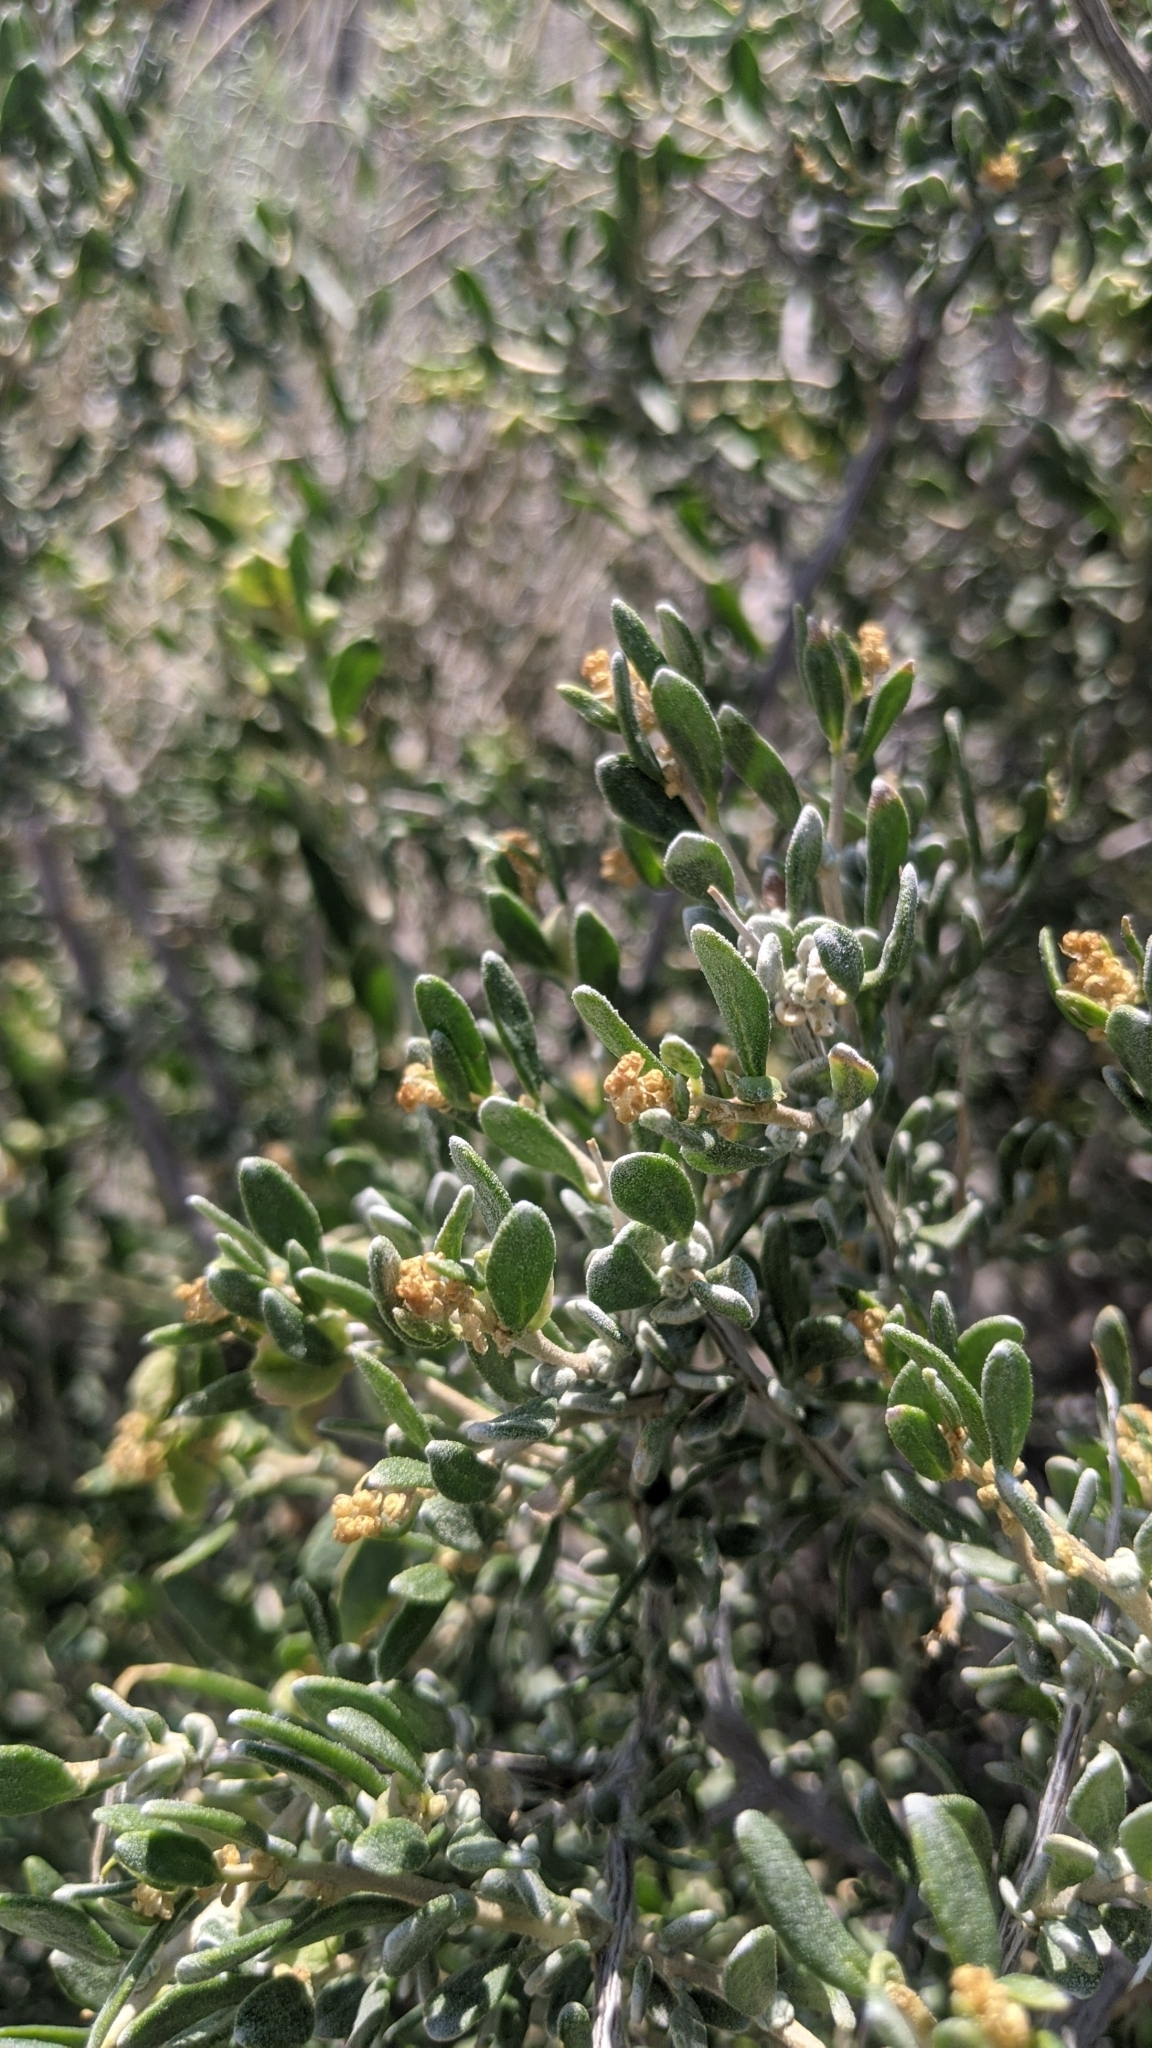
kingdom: Plantae
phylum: Tracheophyta
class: Magnoliopsida
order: Caryophyllales
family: Amaranthaceae
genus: Grayia
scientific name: Grayia spinosa
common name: Spiny hopsage
